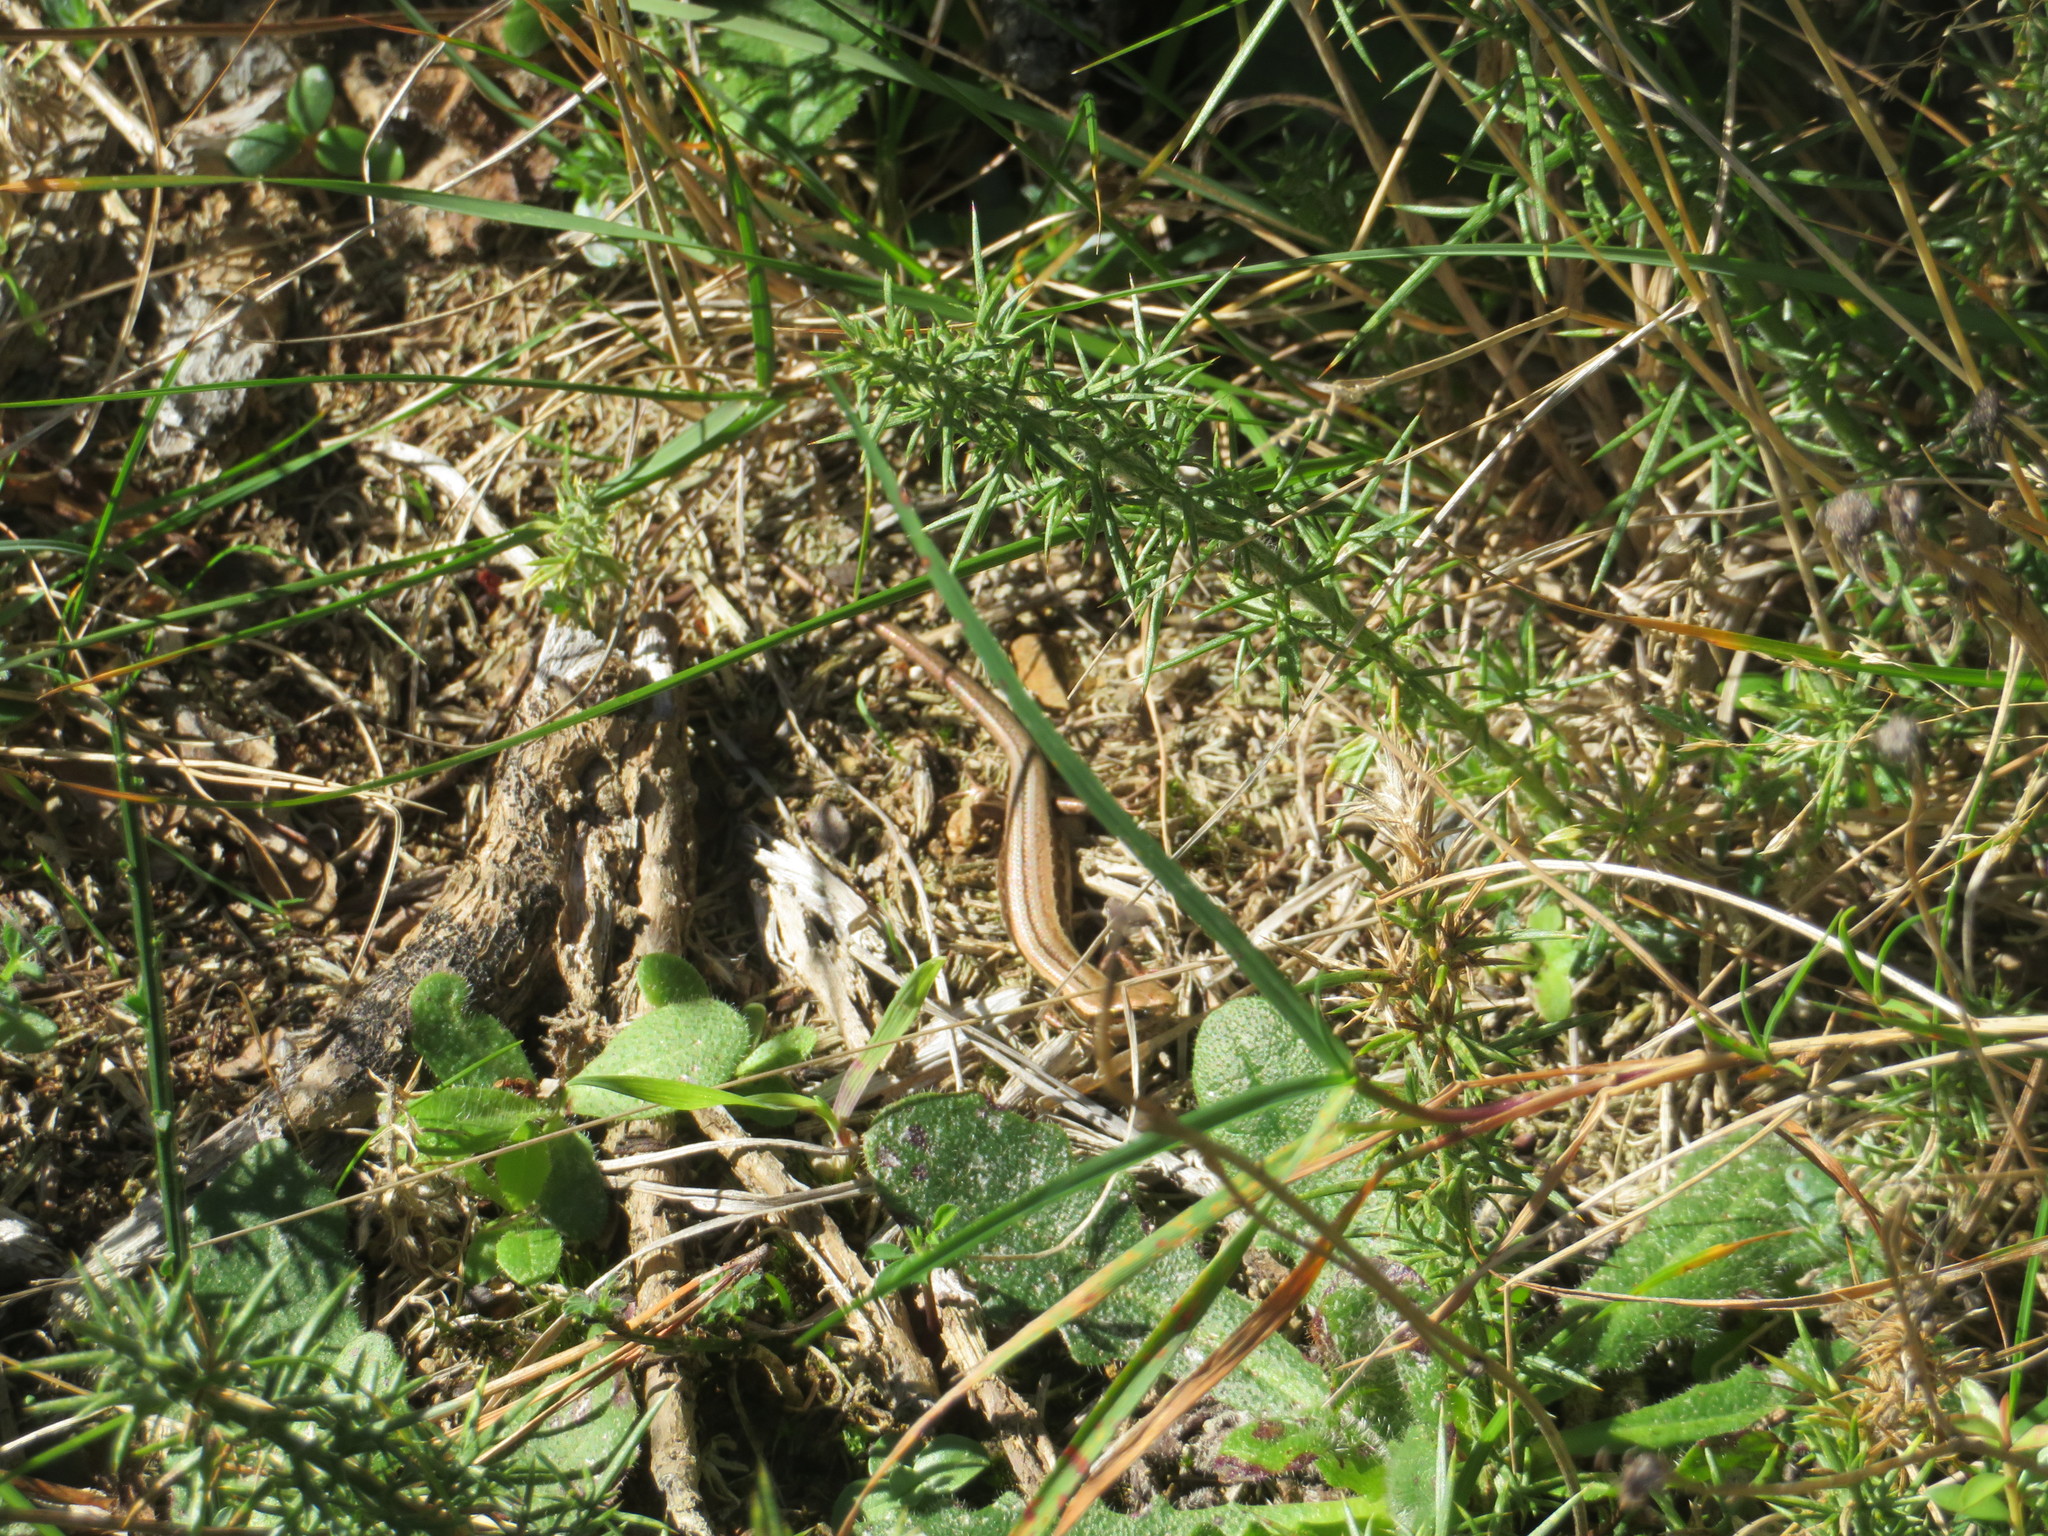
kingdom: Animalia
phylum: Chordata
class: Squamata
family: Scincidae
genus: Oligosoma
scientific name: Oligosoma polychroma
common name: Common new zealand skink
